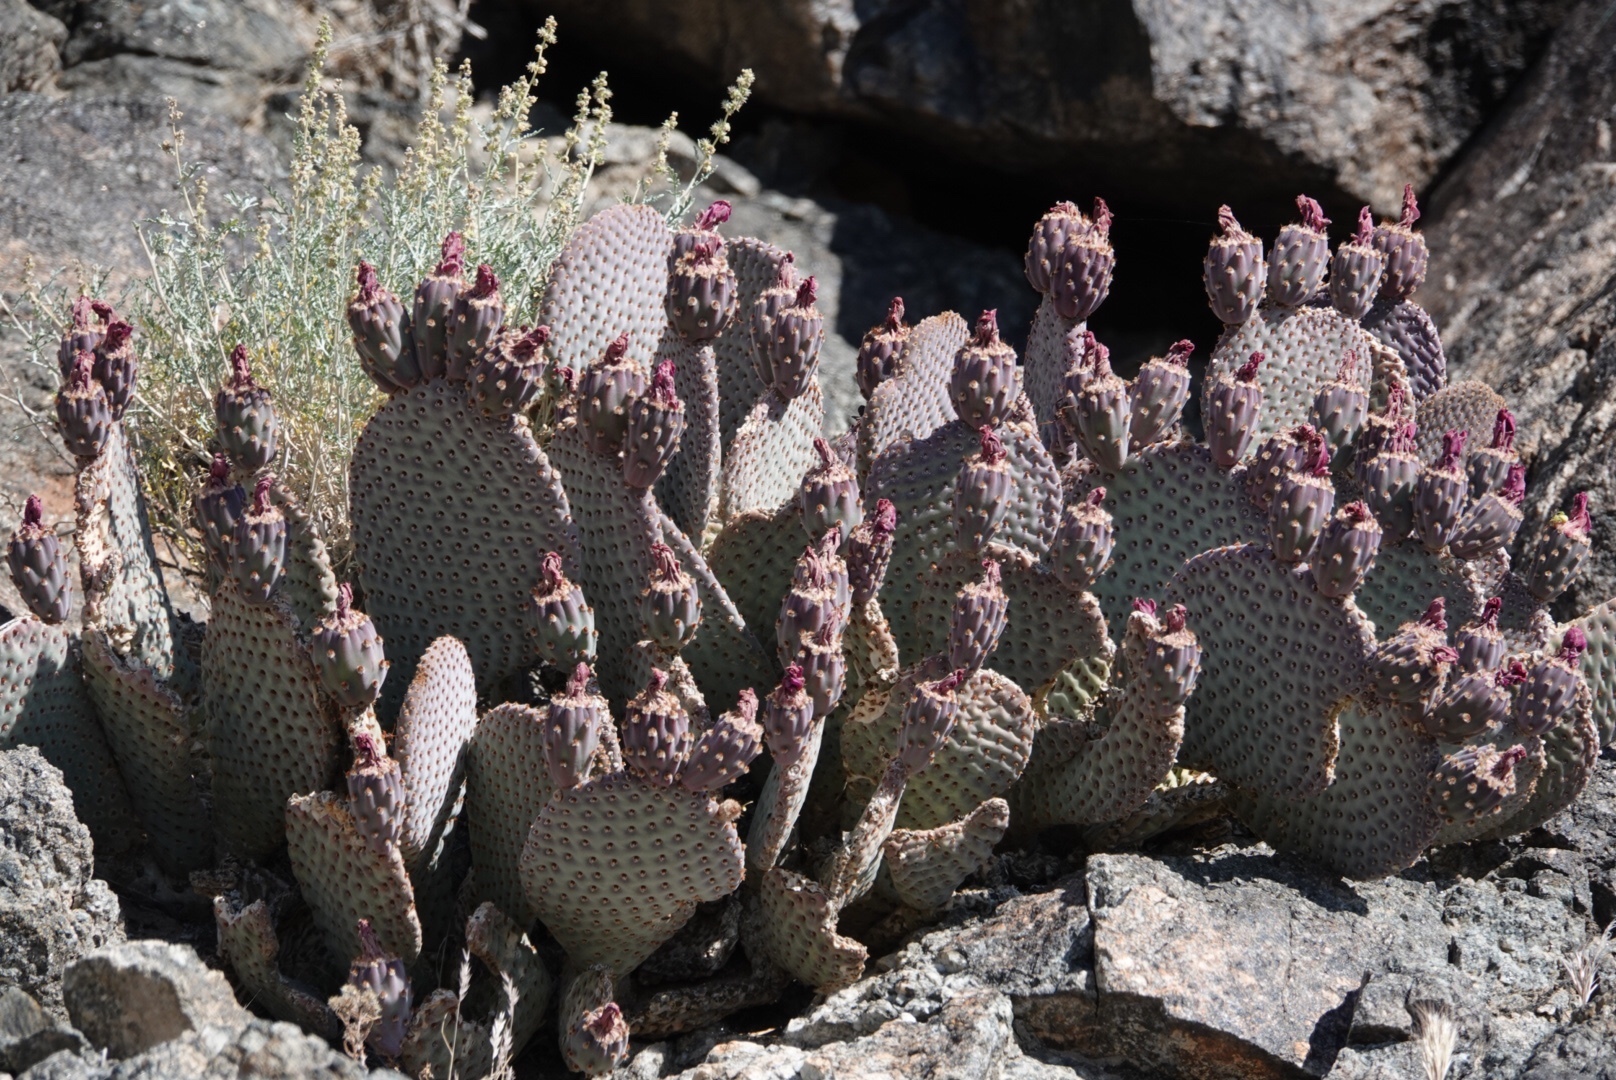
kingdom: Plantae
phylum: Tracheophyta
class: Magnoliopsida
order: Caryophyllales
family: Cactaceae
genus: Opuntia
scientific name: Opuntia basilaris
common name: Beavertail prickly-pear
